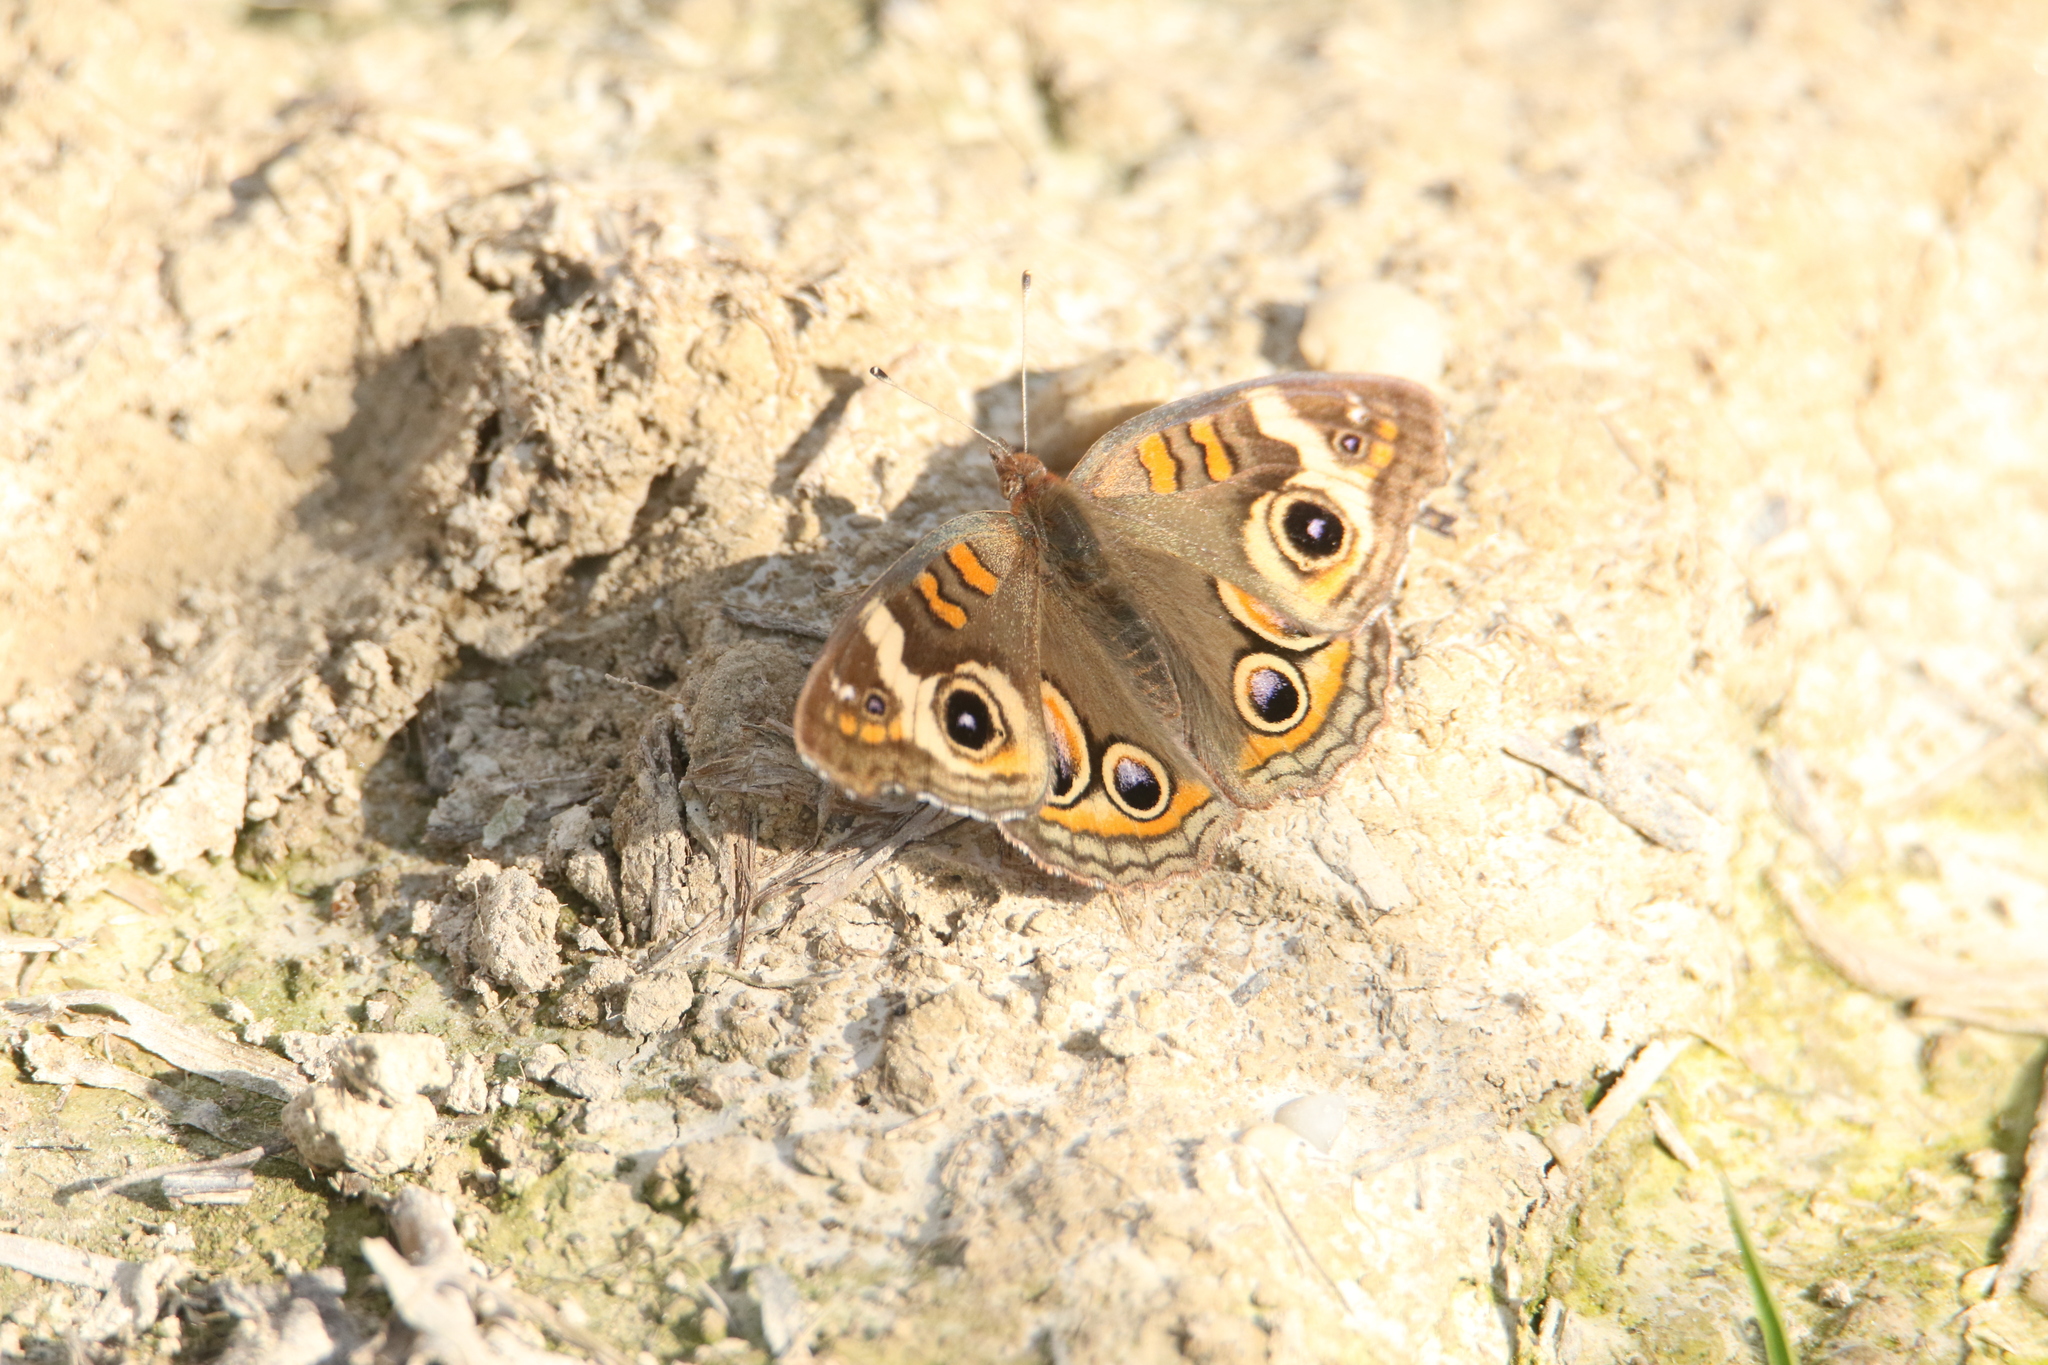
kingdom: Animalia
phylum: Arthropoda
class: Insecta
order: Lepidoptera
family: Nymphalidae
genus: Junonia
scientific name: Junonia coenia
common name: Common buckeye
